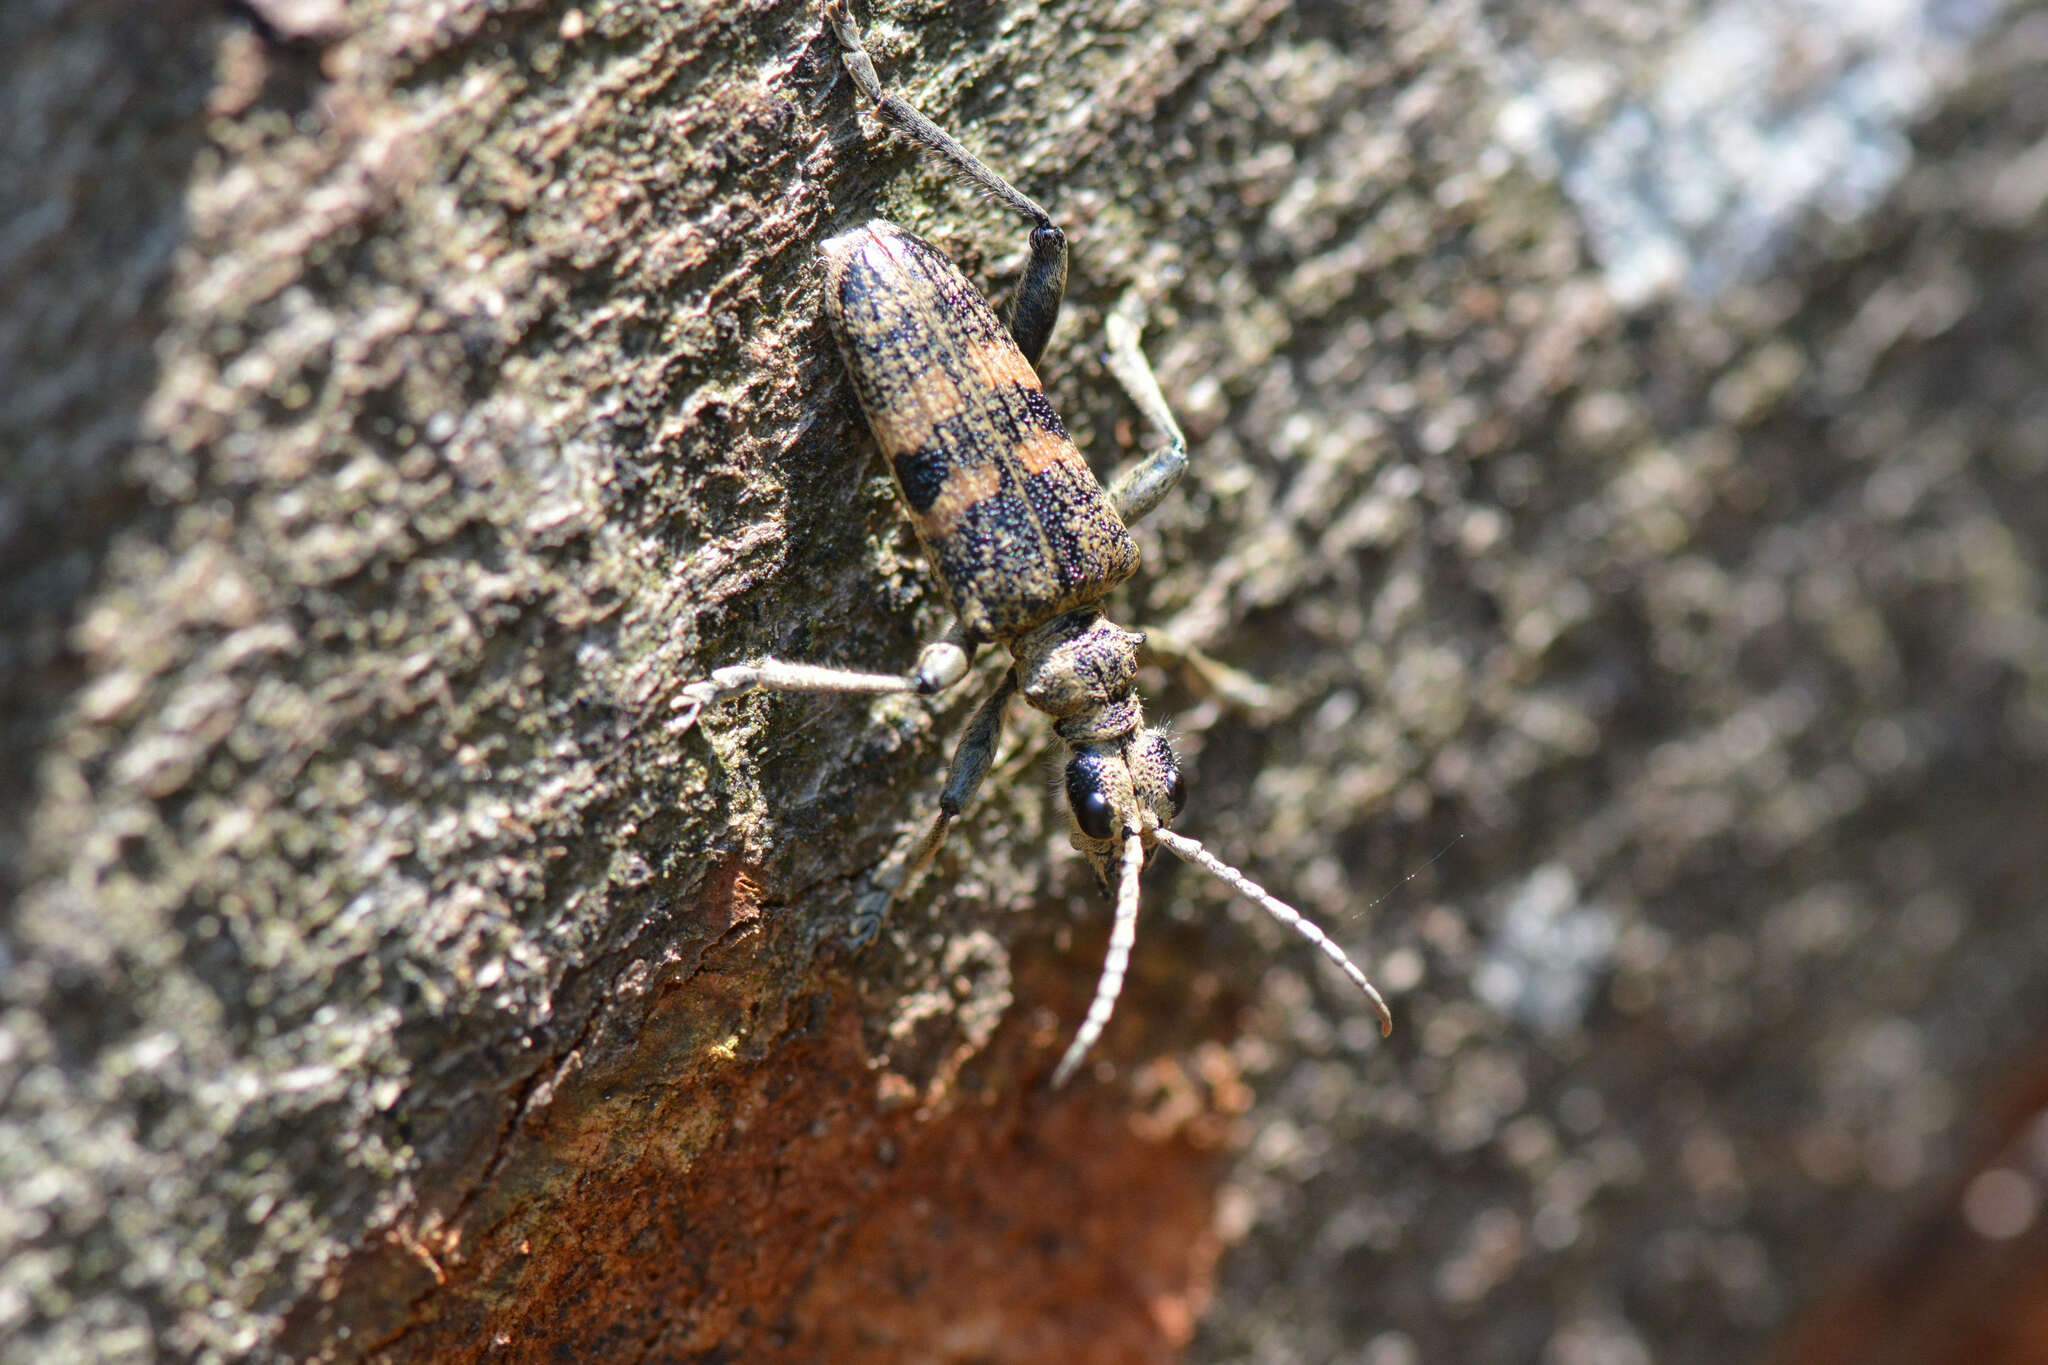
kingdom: Animalia
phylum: Arthropoda
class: Insecta
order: Coleoptera
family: Cerambycidae
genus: Rhagium
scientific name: Rhagium mordax
